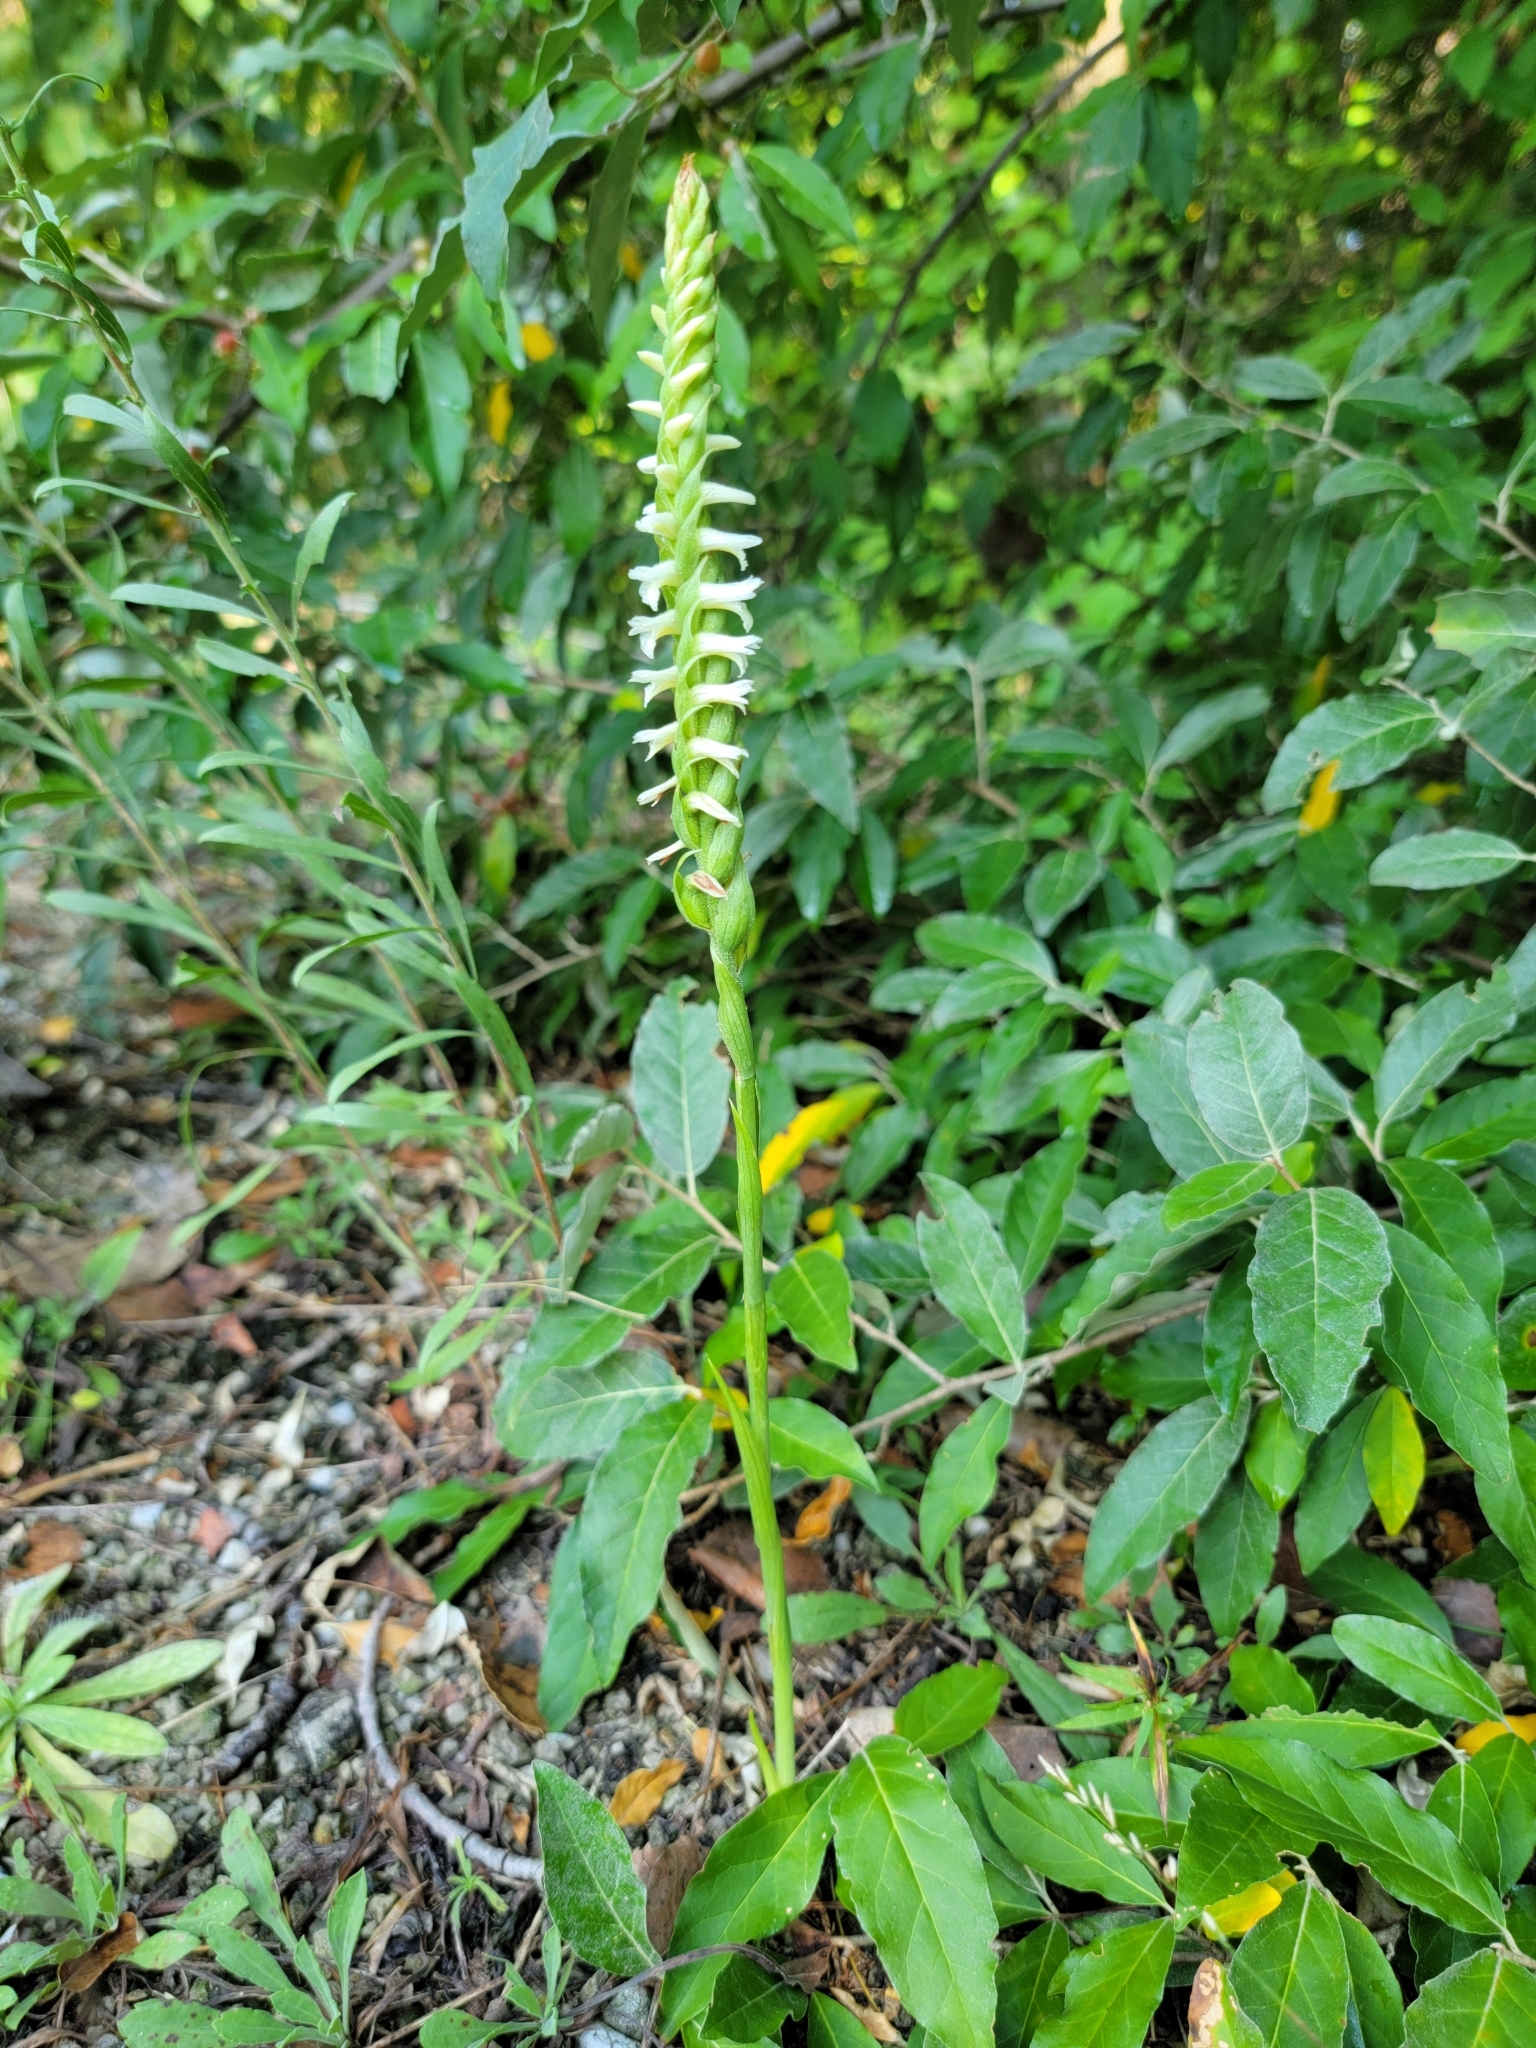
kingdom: Plantae
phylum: Tracheophyta
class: Liliopsida
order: Asparagales
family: Orchidaceae
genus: Spiranthes
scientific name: Spiranthes magnicamporum
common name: Great plains ladies'-tresses
